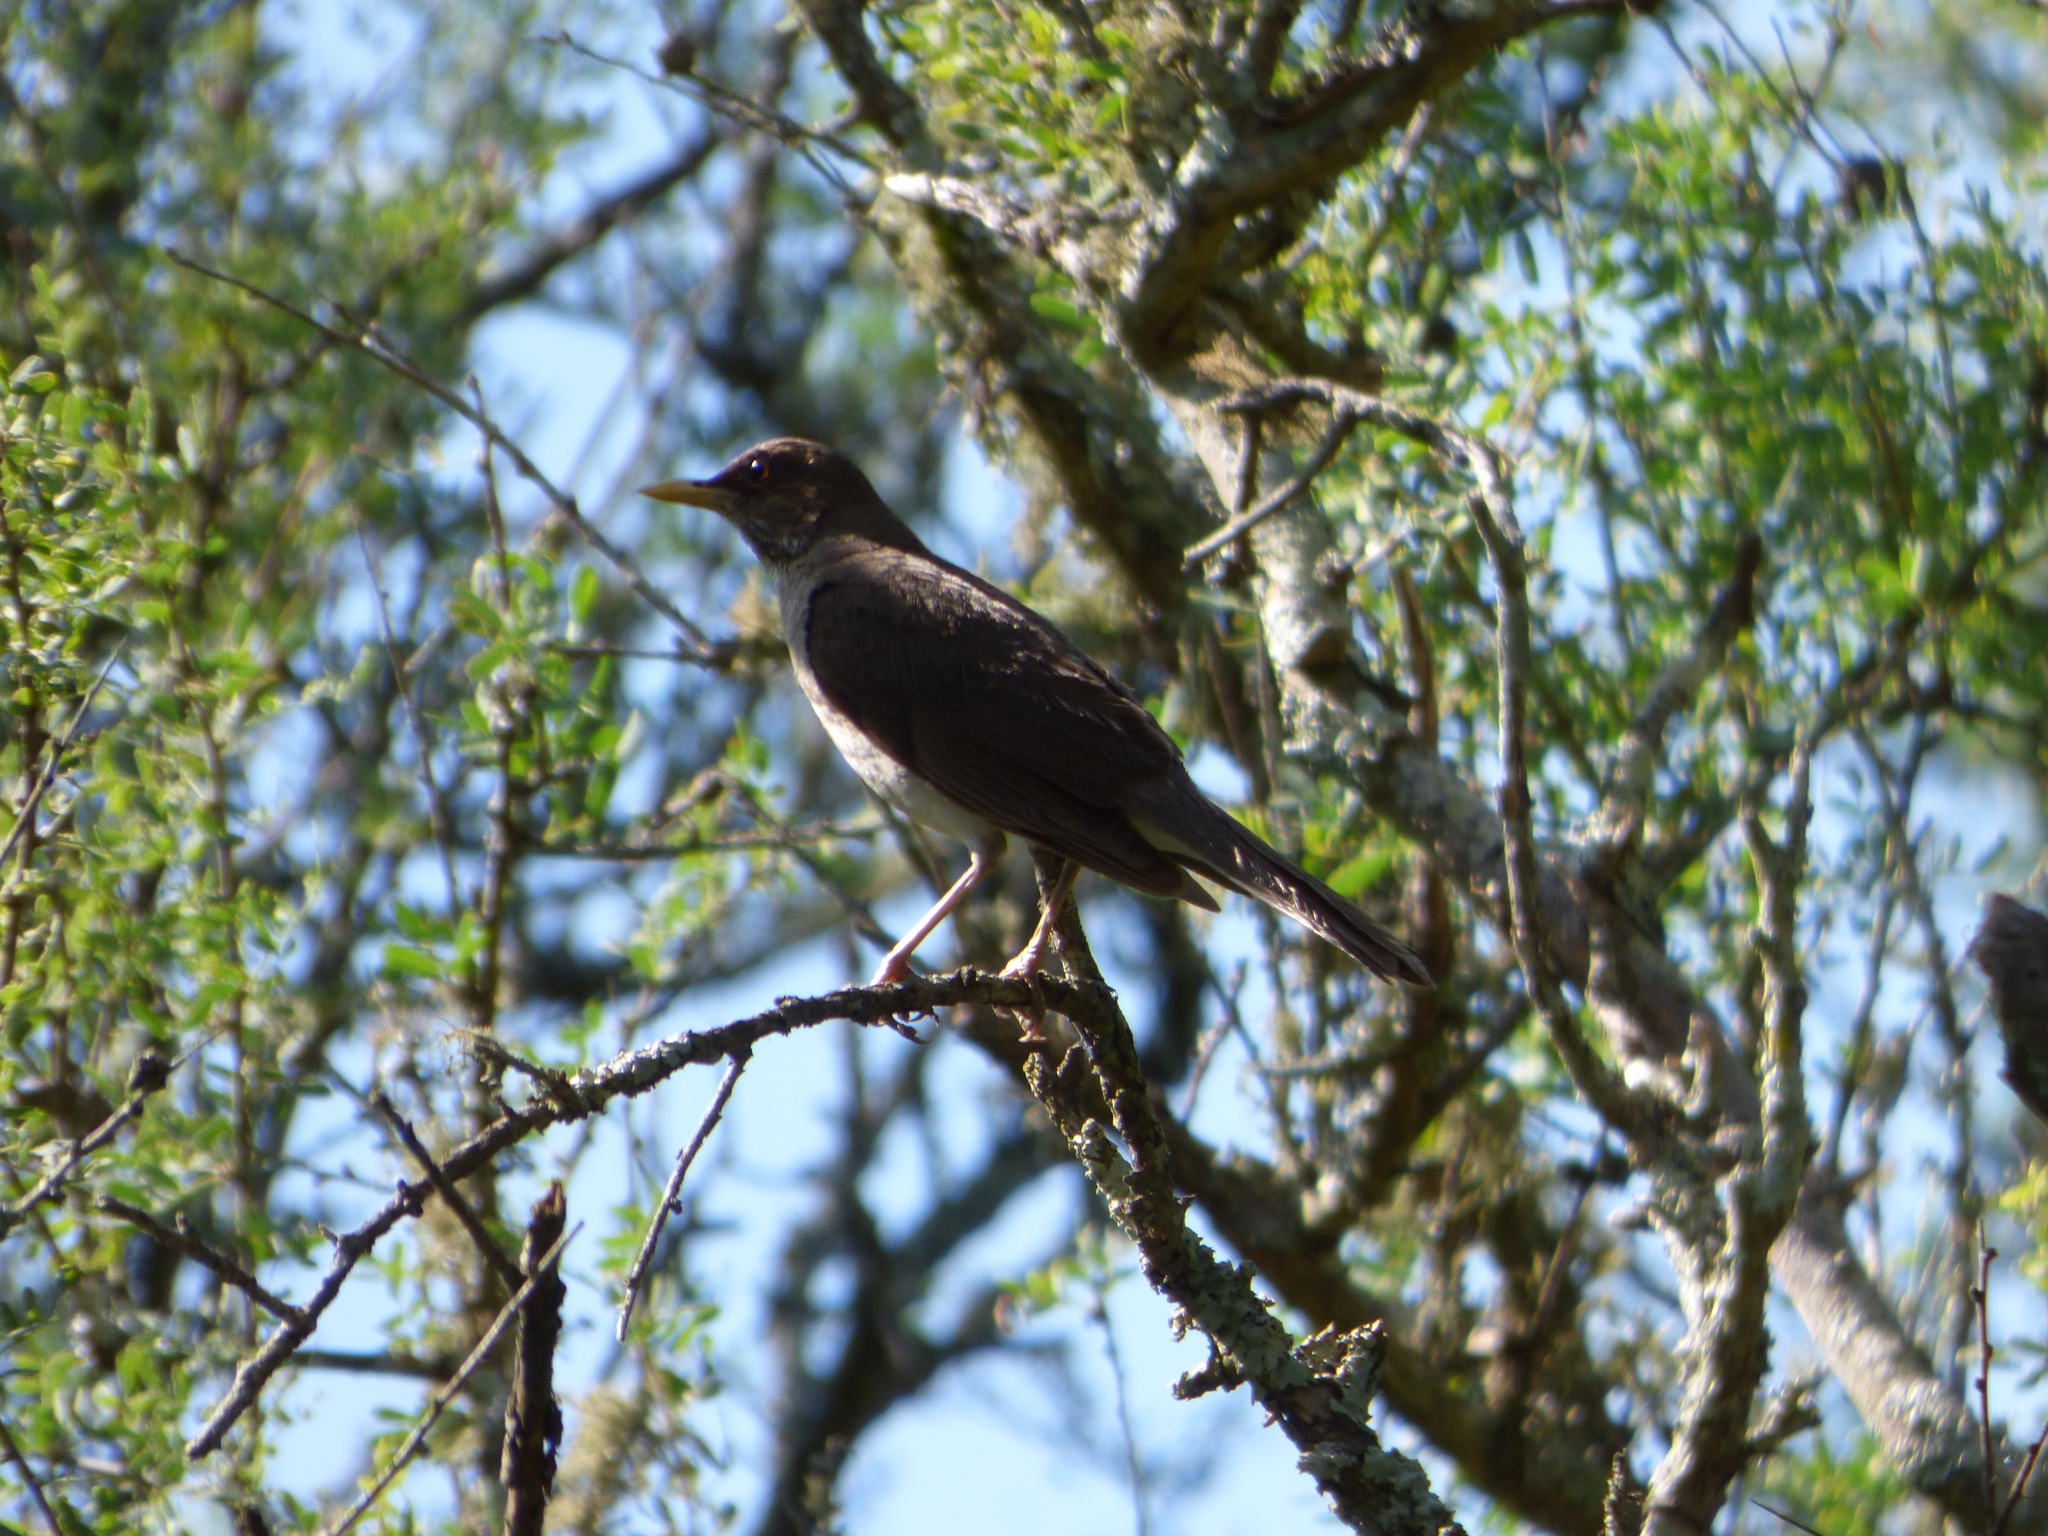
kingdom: Animalia
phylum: Chordata
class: Aves
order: Passeriformes
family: Turdidae
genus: Turdus
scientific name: Turdus amaurochalinus
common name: Creamy-bellied thrush
